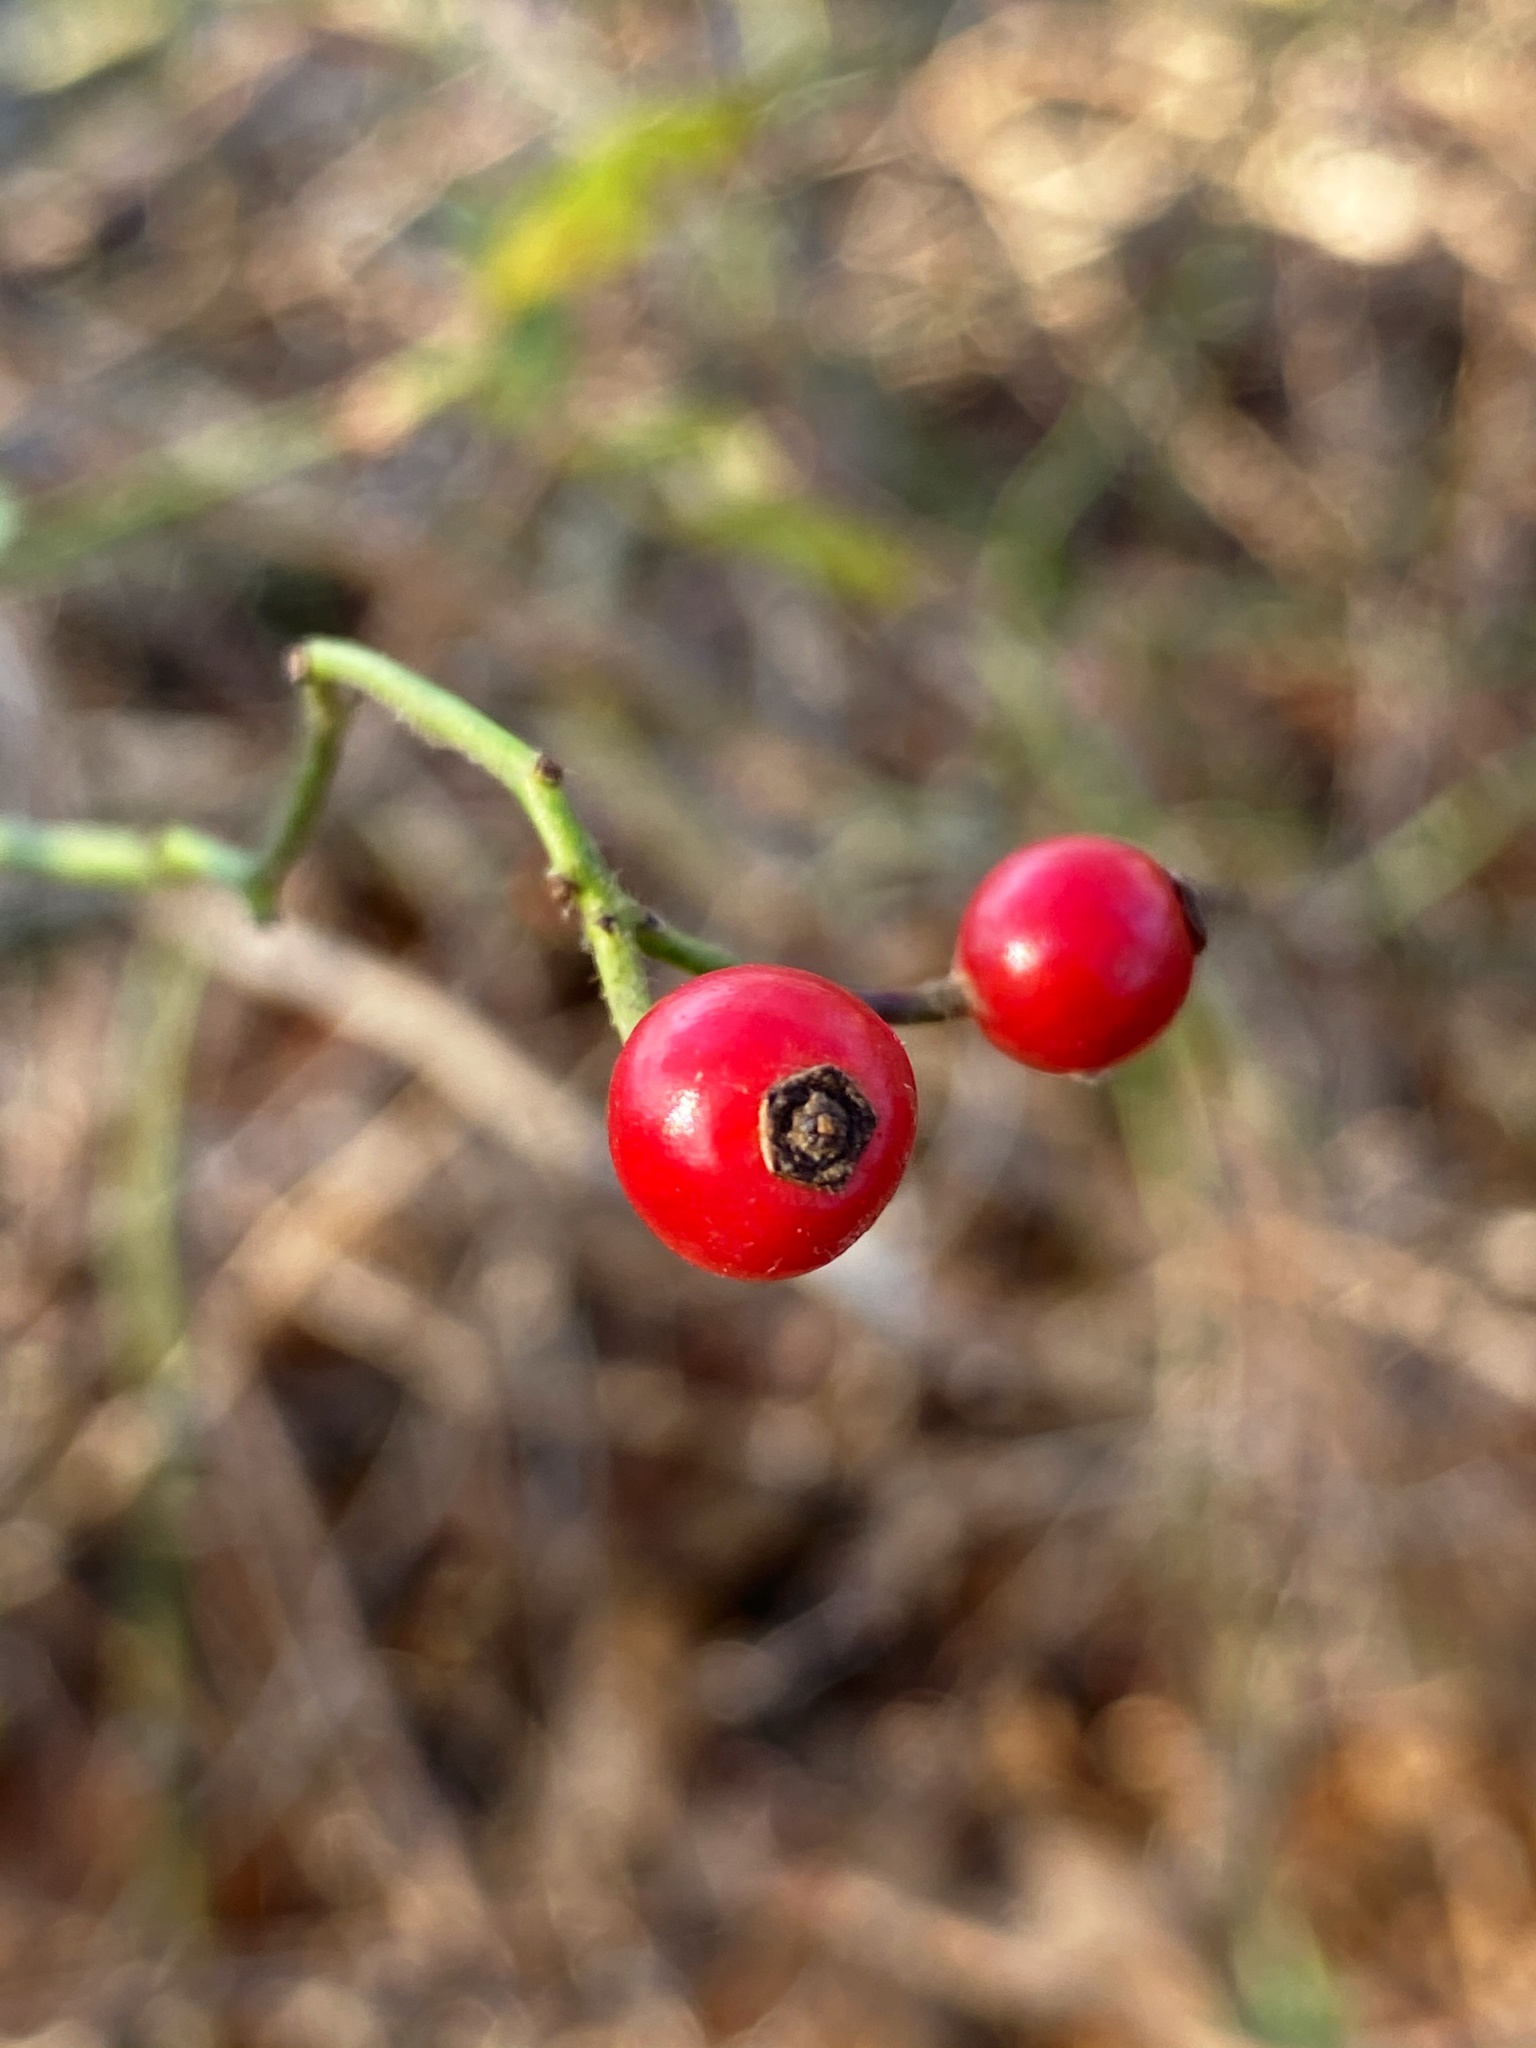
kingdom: Plantae
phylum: Tracheophyta
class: Magnoliopsida
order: Rosales
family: Rosaceae
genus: Rosa
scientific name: Rosa multiflora
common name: Multiflora rose
